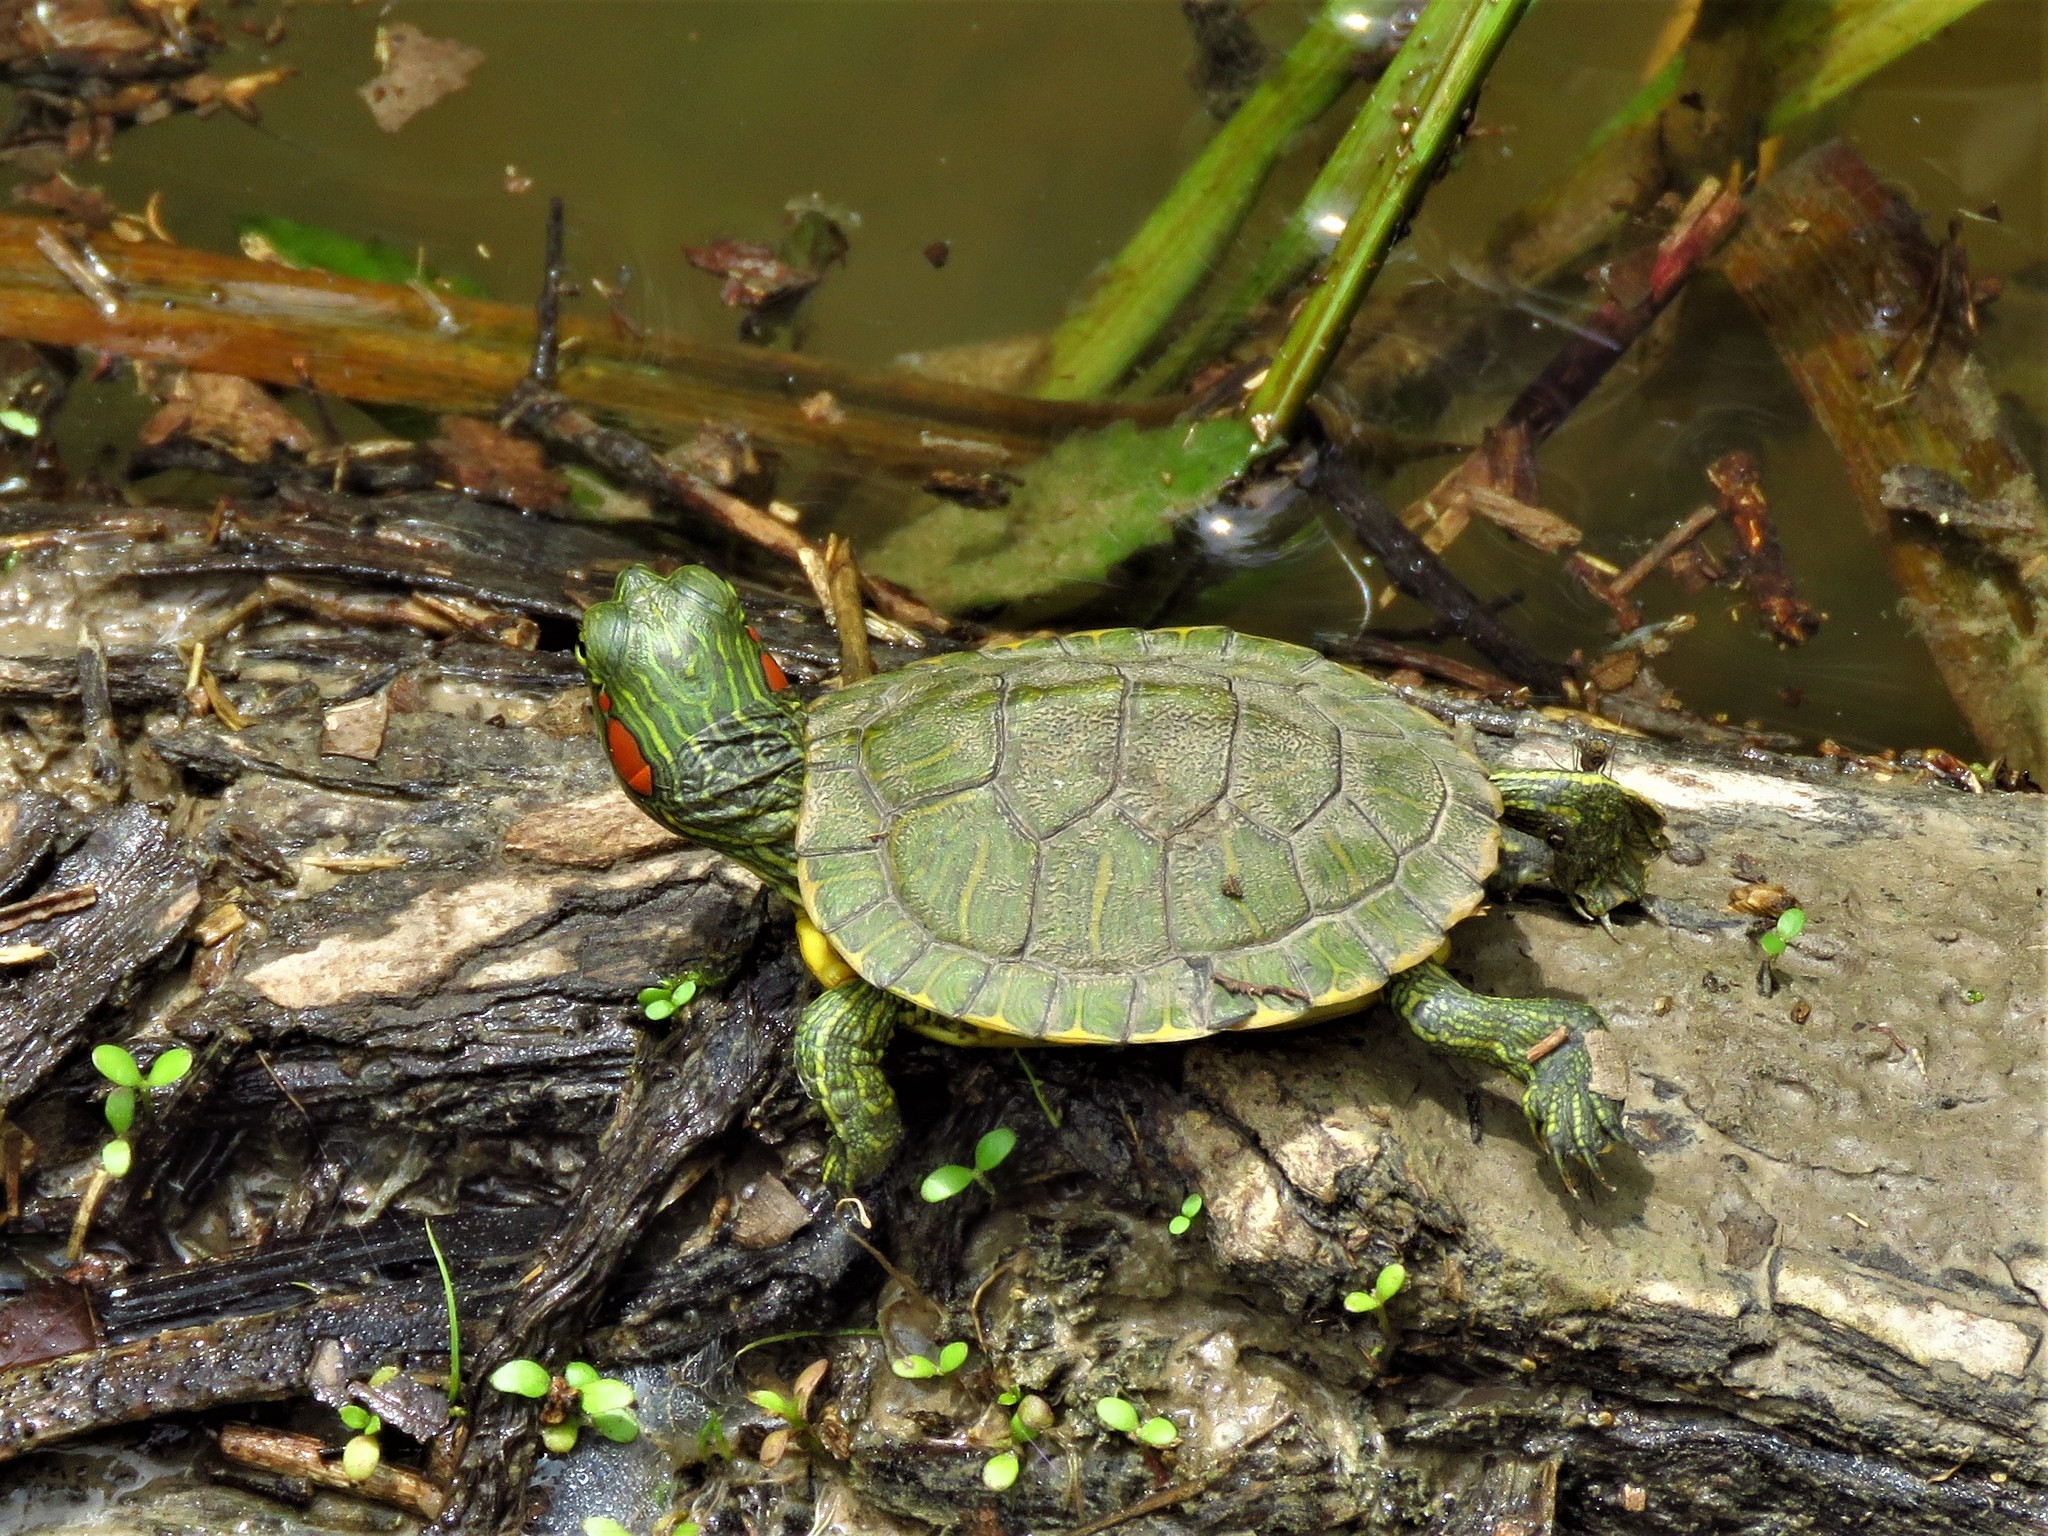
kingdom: Animalia
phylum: Chordata
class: Testudines
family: Emydidae
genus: Trachemys
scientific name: Trachemys scripta
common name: Slider
